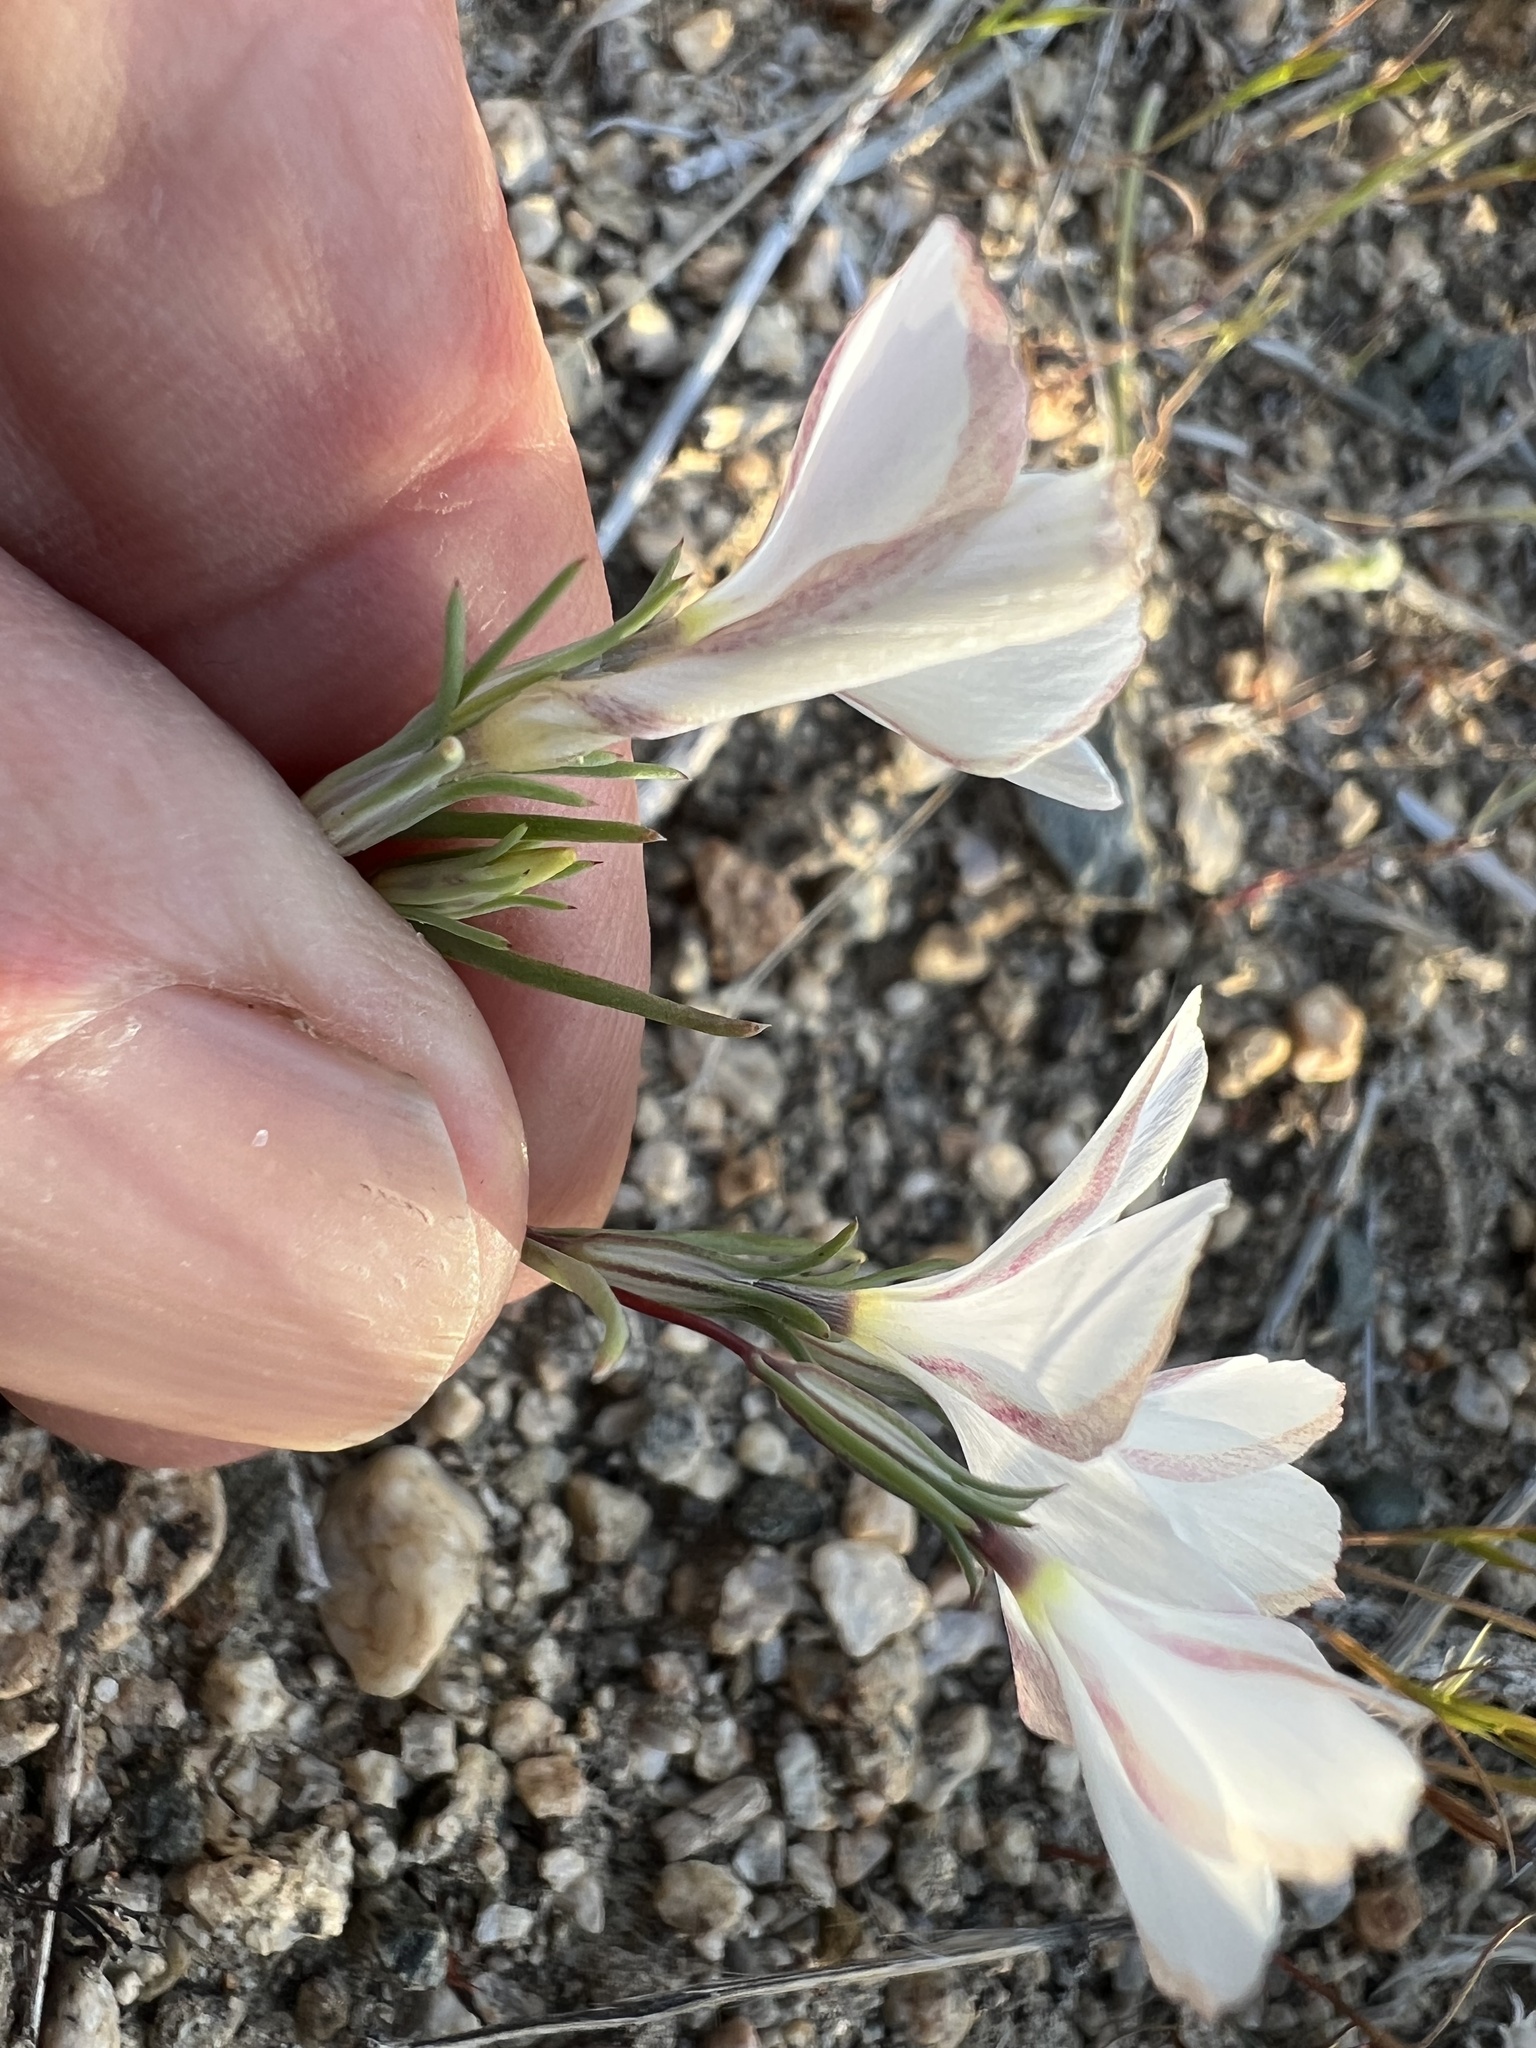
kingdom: Plantae
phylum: Tracheophyta
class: Magnoliopsida
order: Ericales
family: Polemoniaceae
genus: Linanthus
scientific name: Linanthus dichotomus
